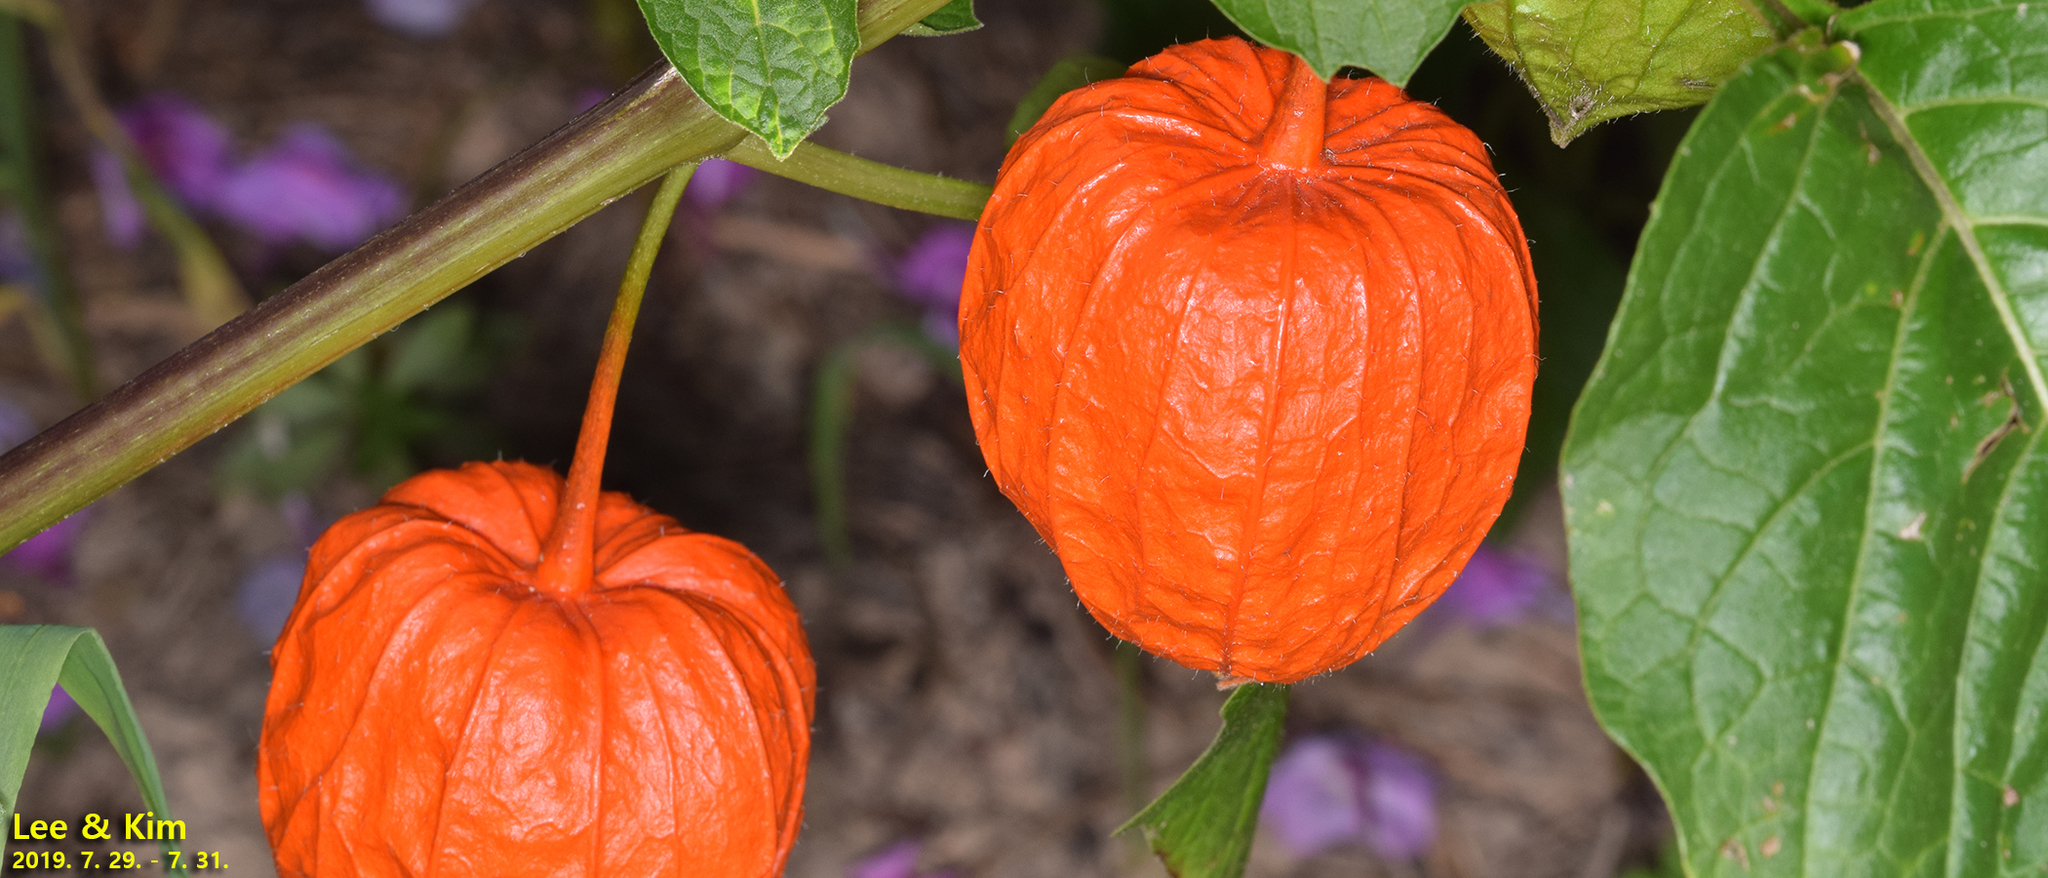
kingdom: Plantae
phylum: Tracheophyta
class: Magnoliopsida
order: Solanales
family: Solanaceae
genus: Alkekengi
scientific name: Alkekengi officinarum
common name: Japanese-lantern
